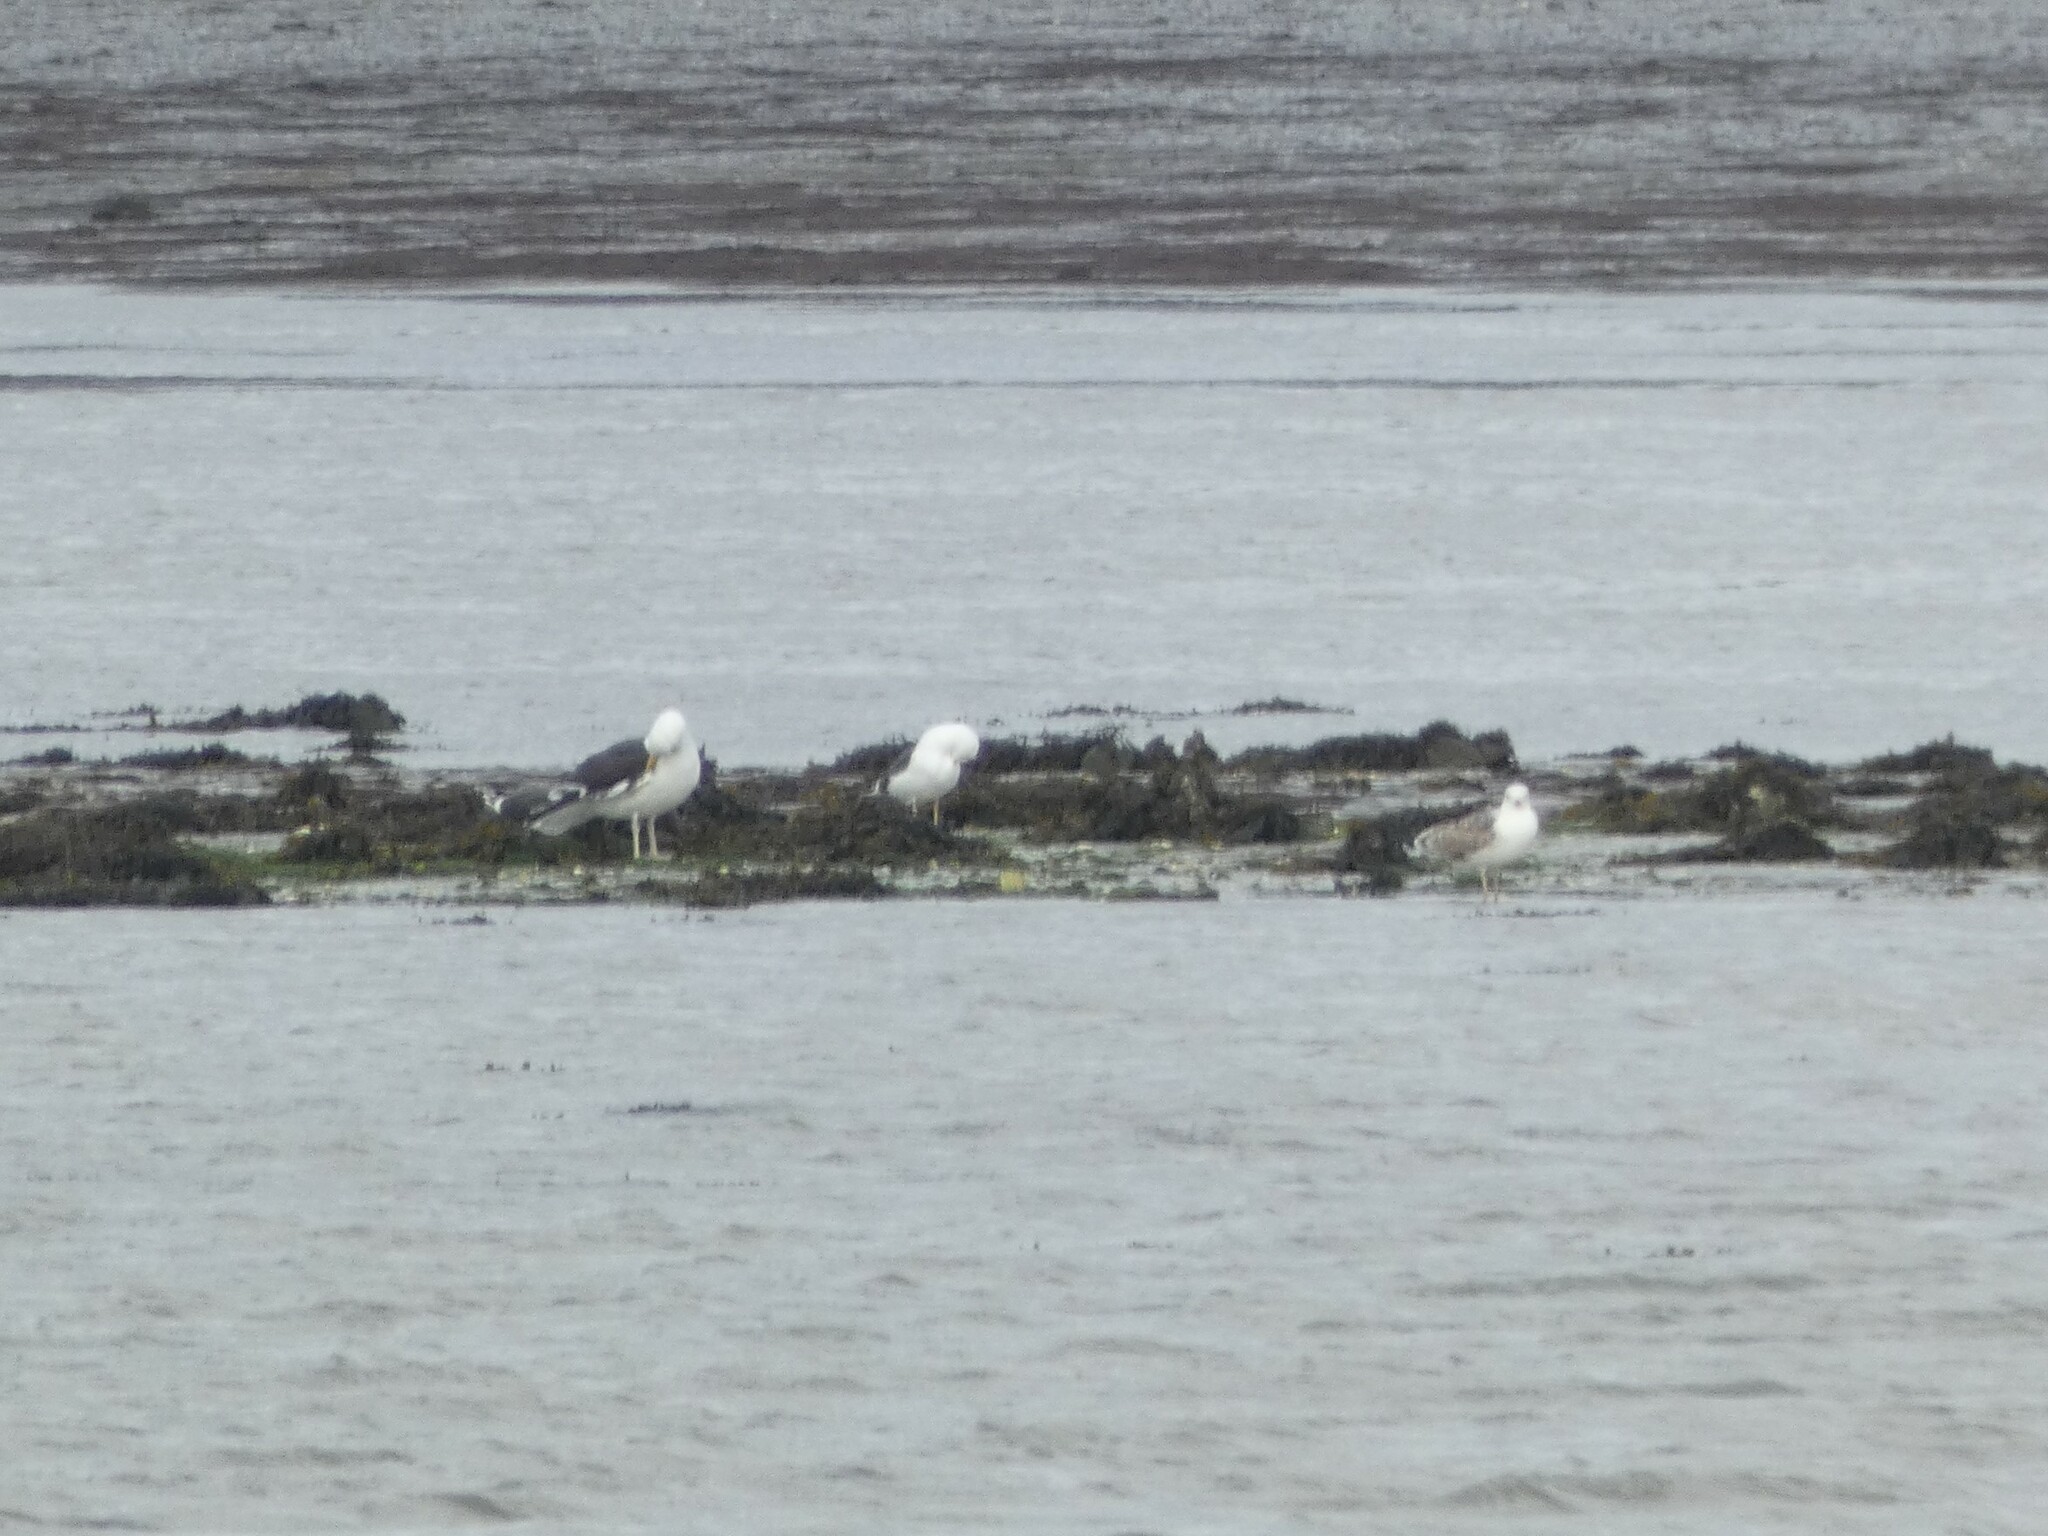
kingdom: Animalia
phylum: Chordata
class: Aves
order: Charadriiformes
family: Laridae
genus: Larus
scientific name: Larus marinus
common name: Great black-backed gull
